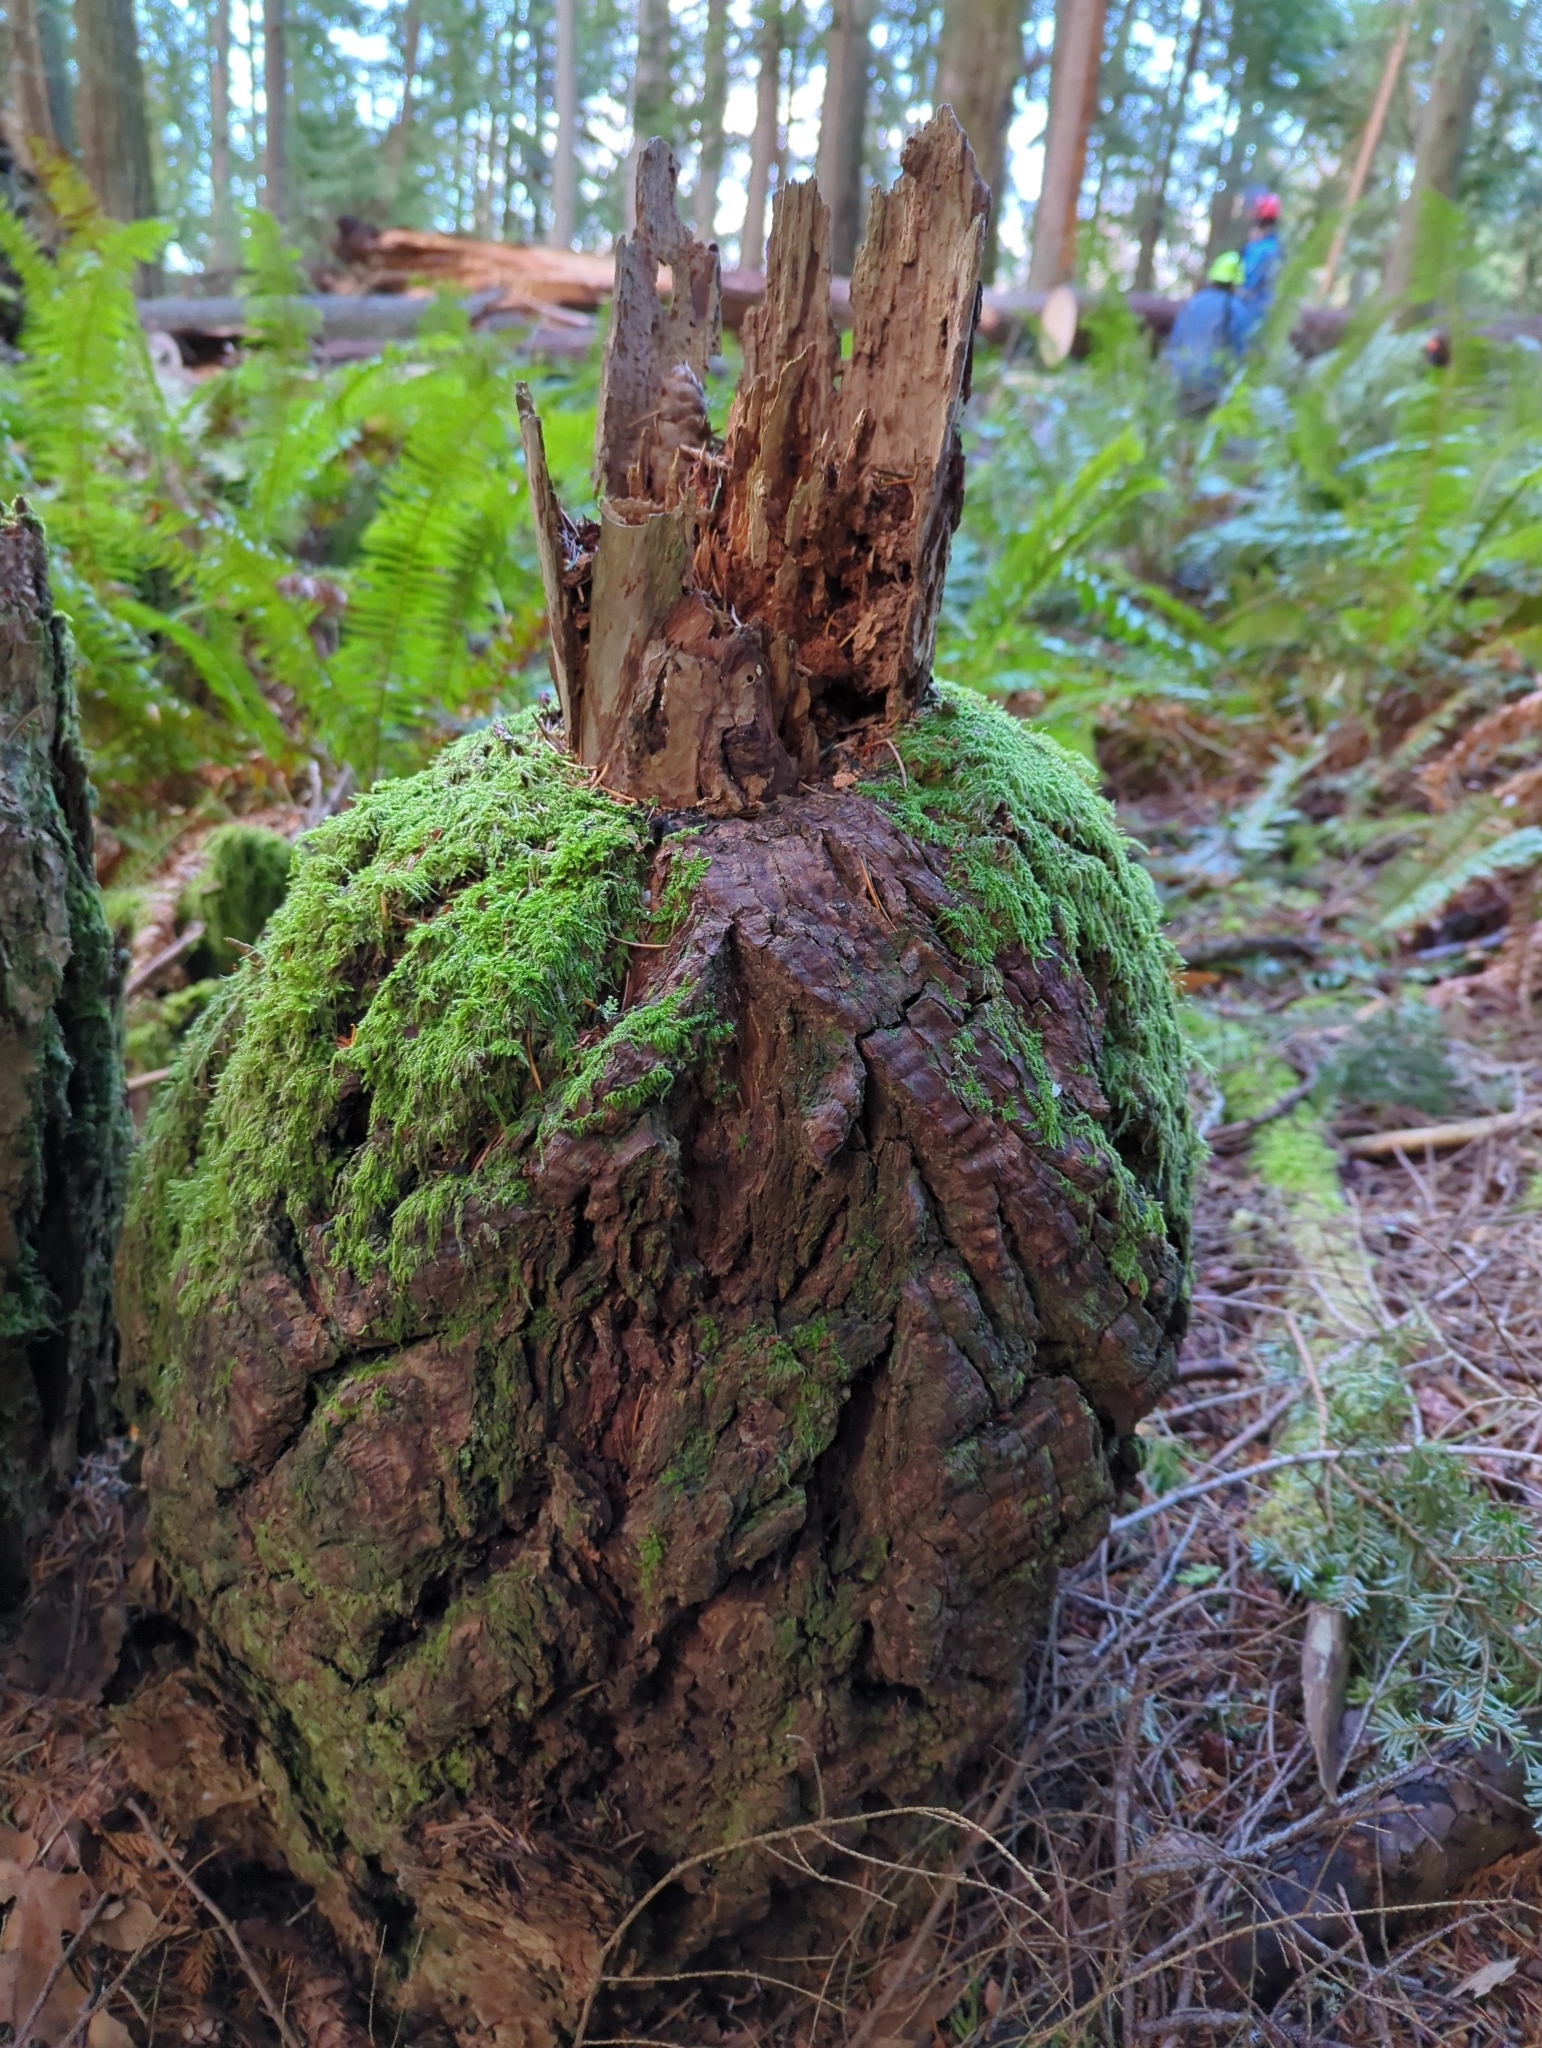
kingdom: Plantae
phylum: Tracheophyta
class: Pinopsida
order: Pinales
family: Pinaceae
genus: Pseudotsuga
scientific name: Pseudotsuga menziesii
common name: Douglas fir
